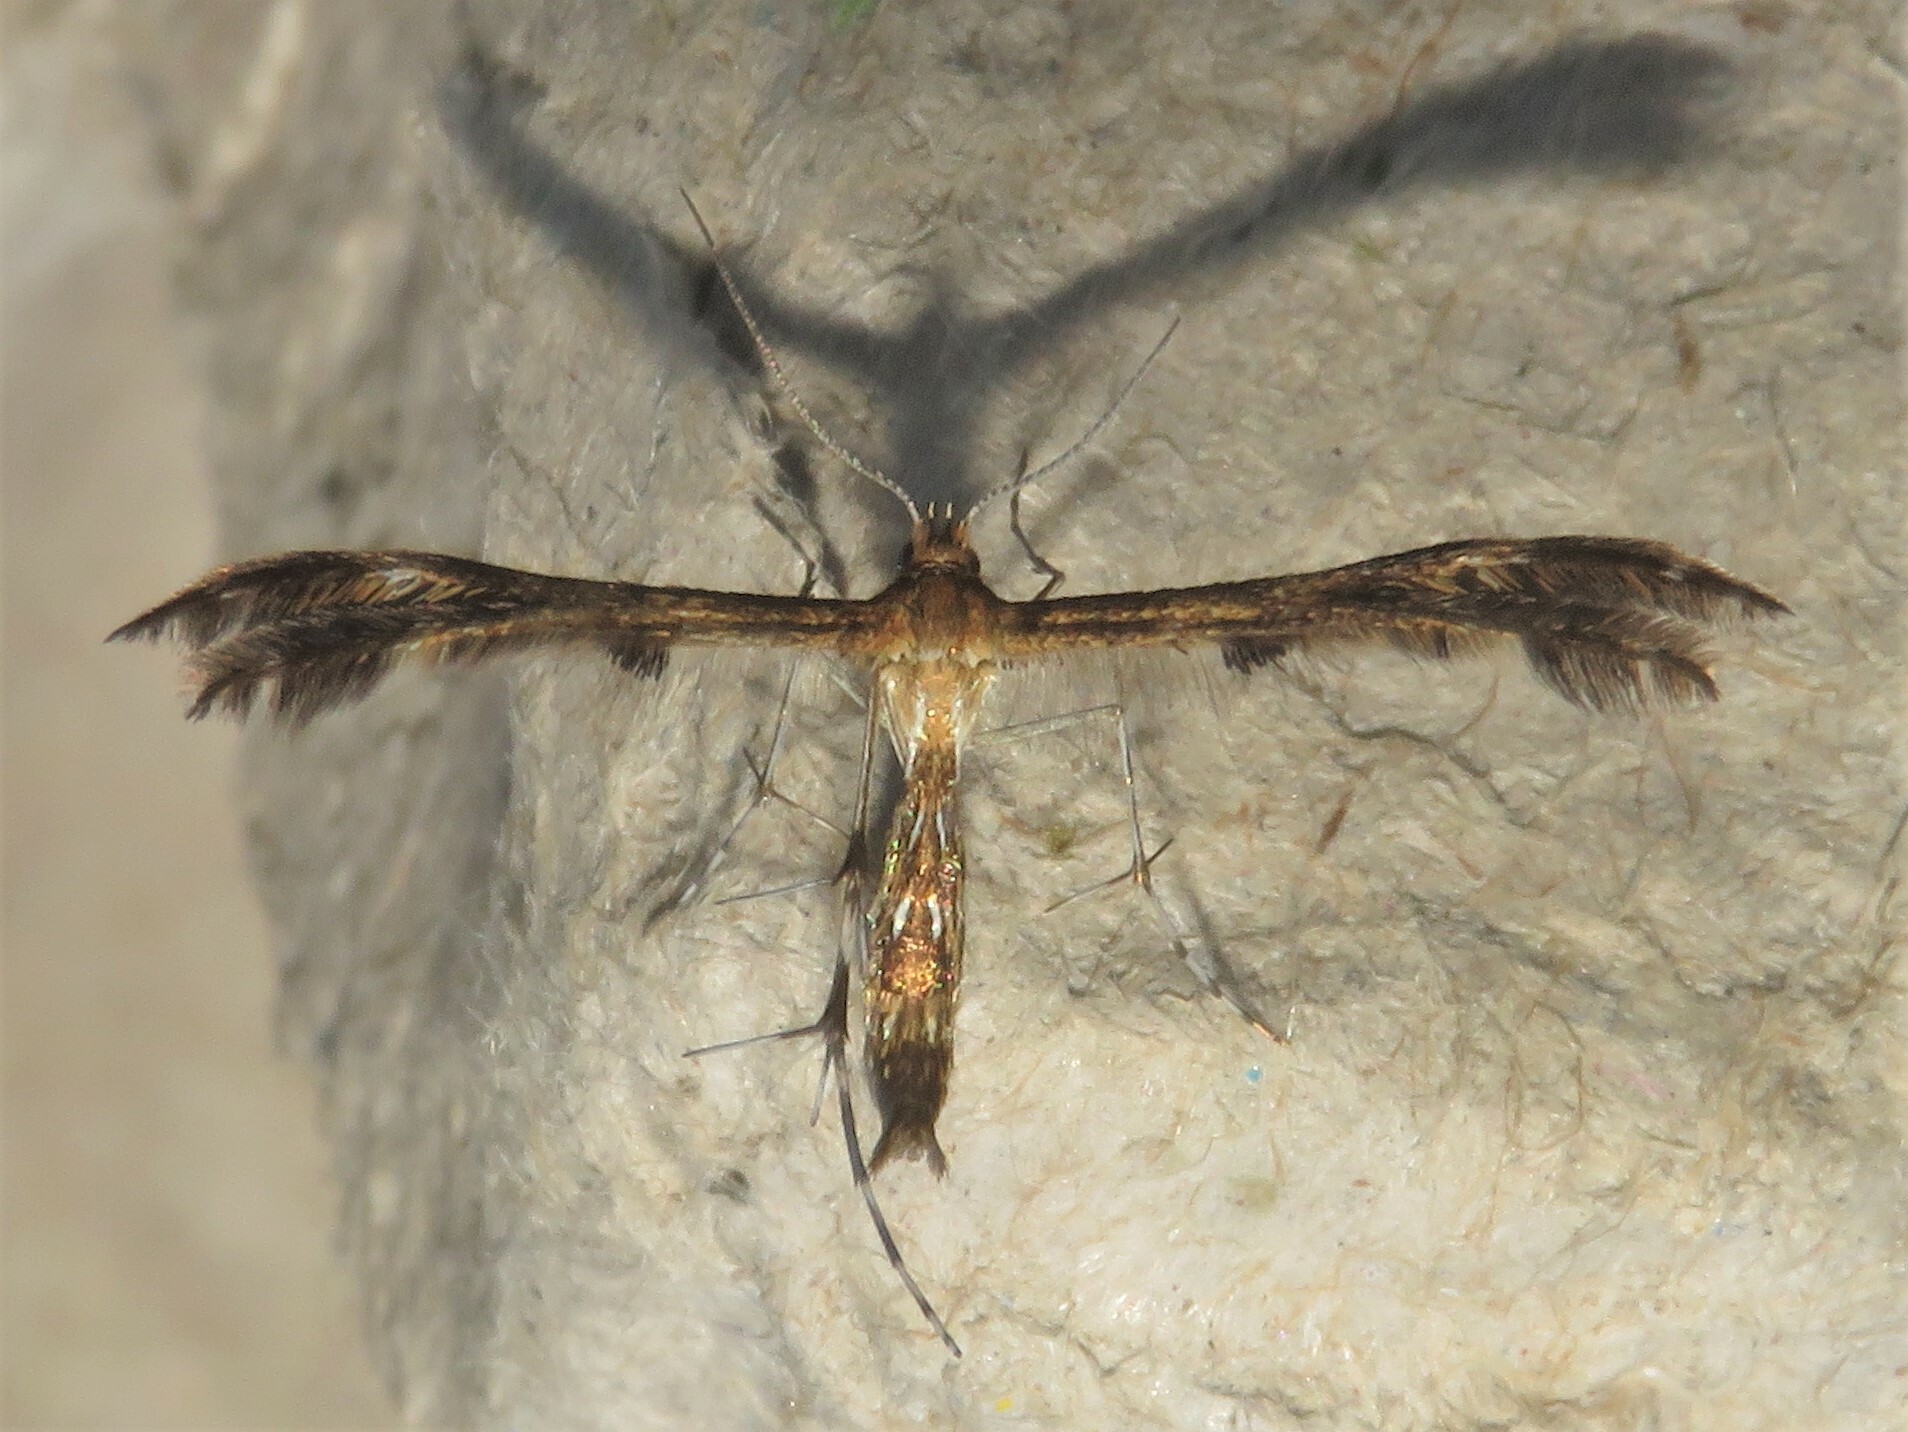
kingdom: Animalia
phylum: Arthropoda
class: Insecta
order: Lepidoptera
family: Pterophoridae
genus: Dejongia
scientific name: Dejongia lobidactylus
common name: Lobed plume moth
